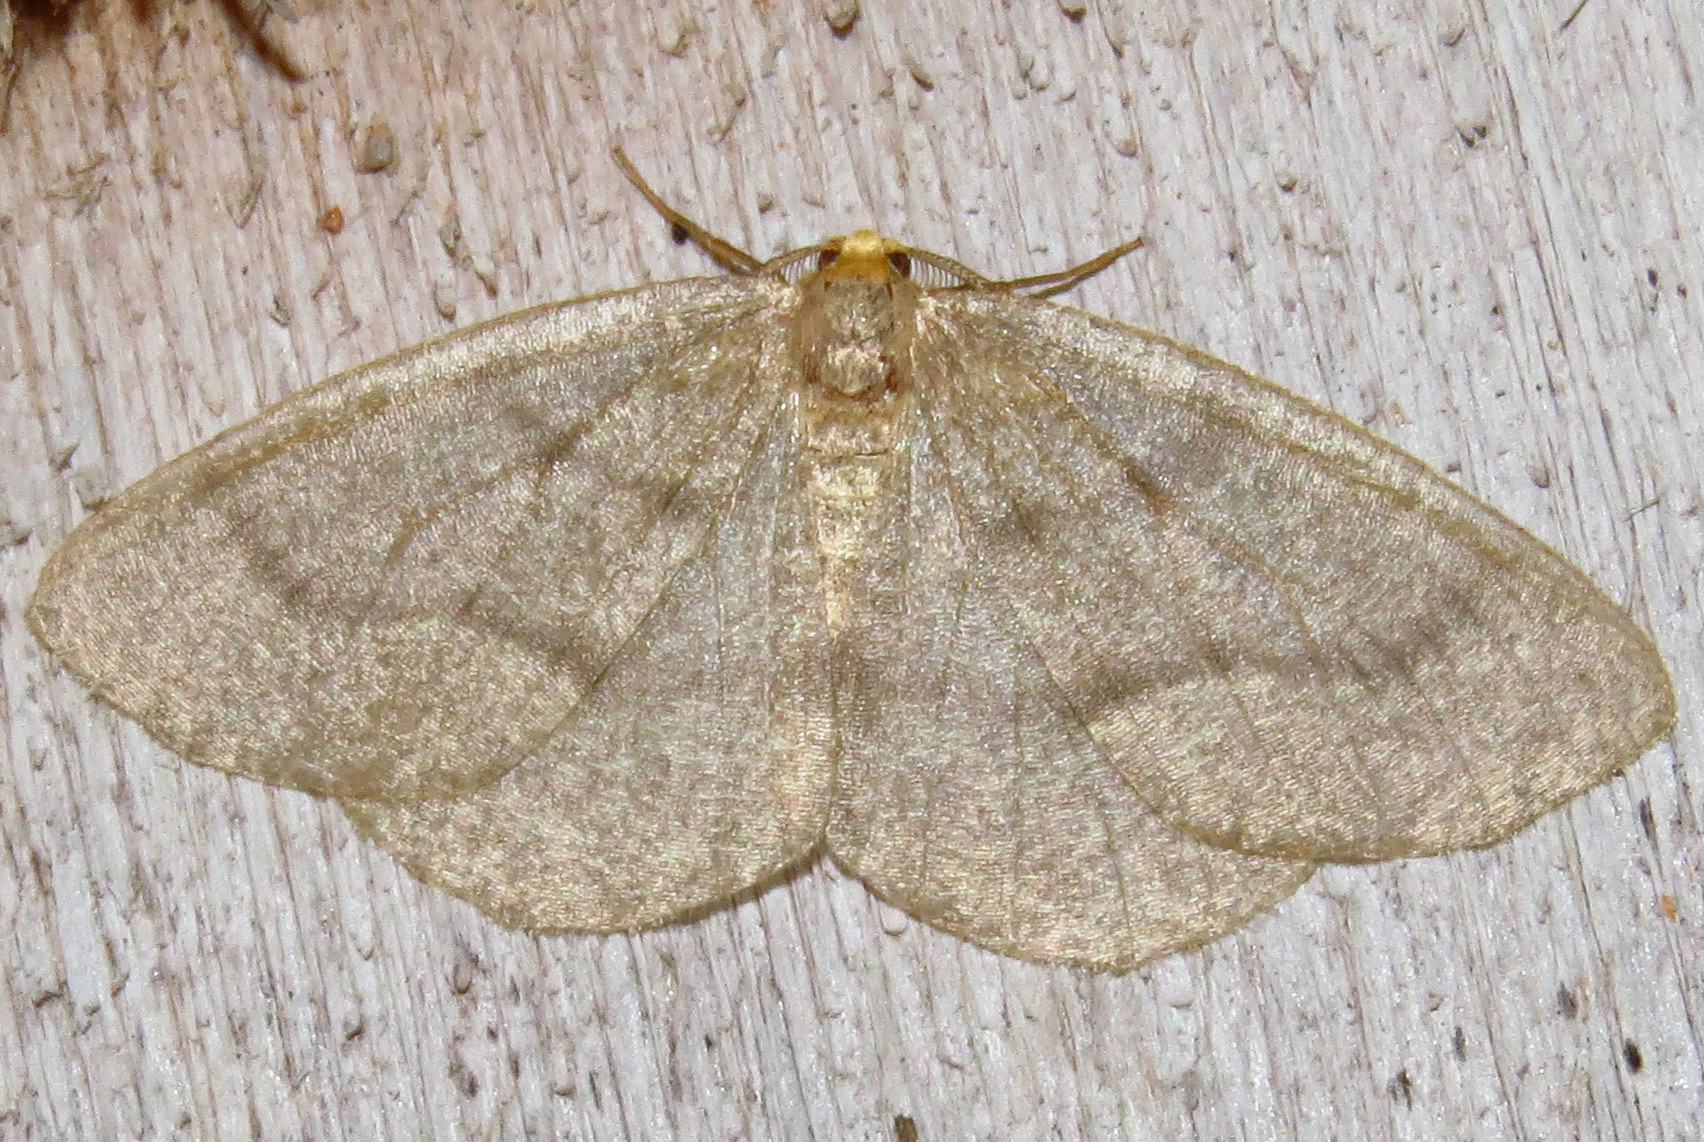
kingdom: Animalia
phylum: Arthropoda
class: Insecta
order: Lepidoptera
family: Geometridae
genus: Lambdina
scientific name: Lambdina fervidaria
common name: Curve-lined looper moth
